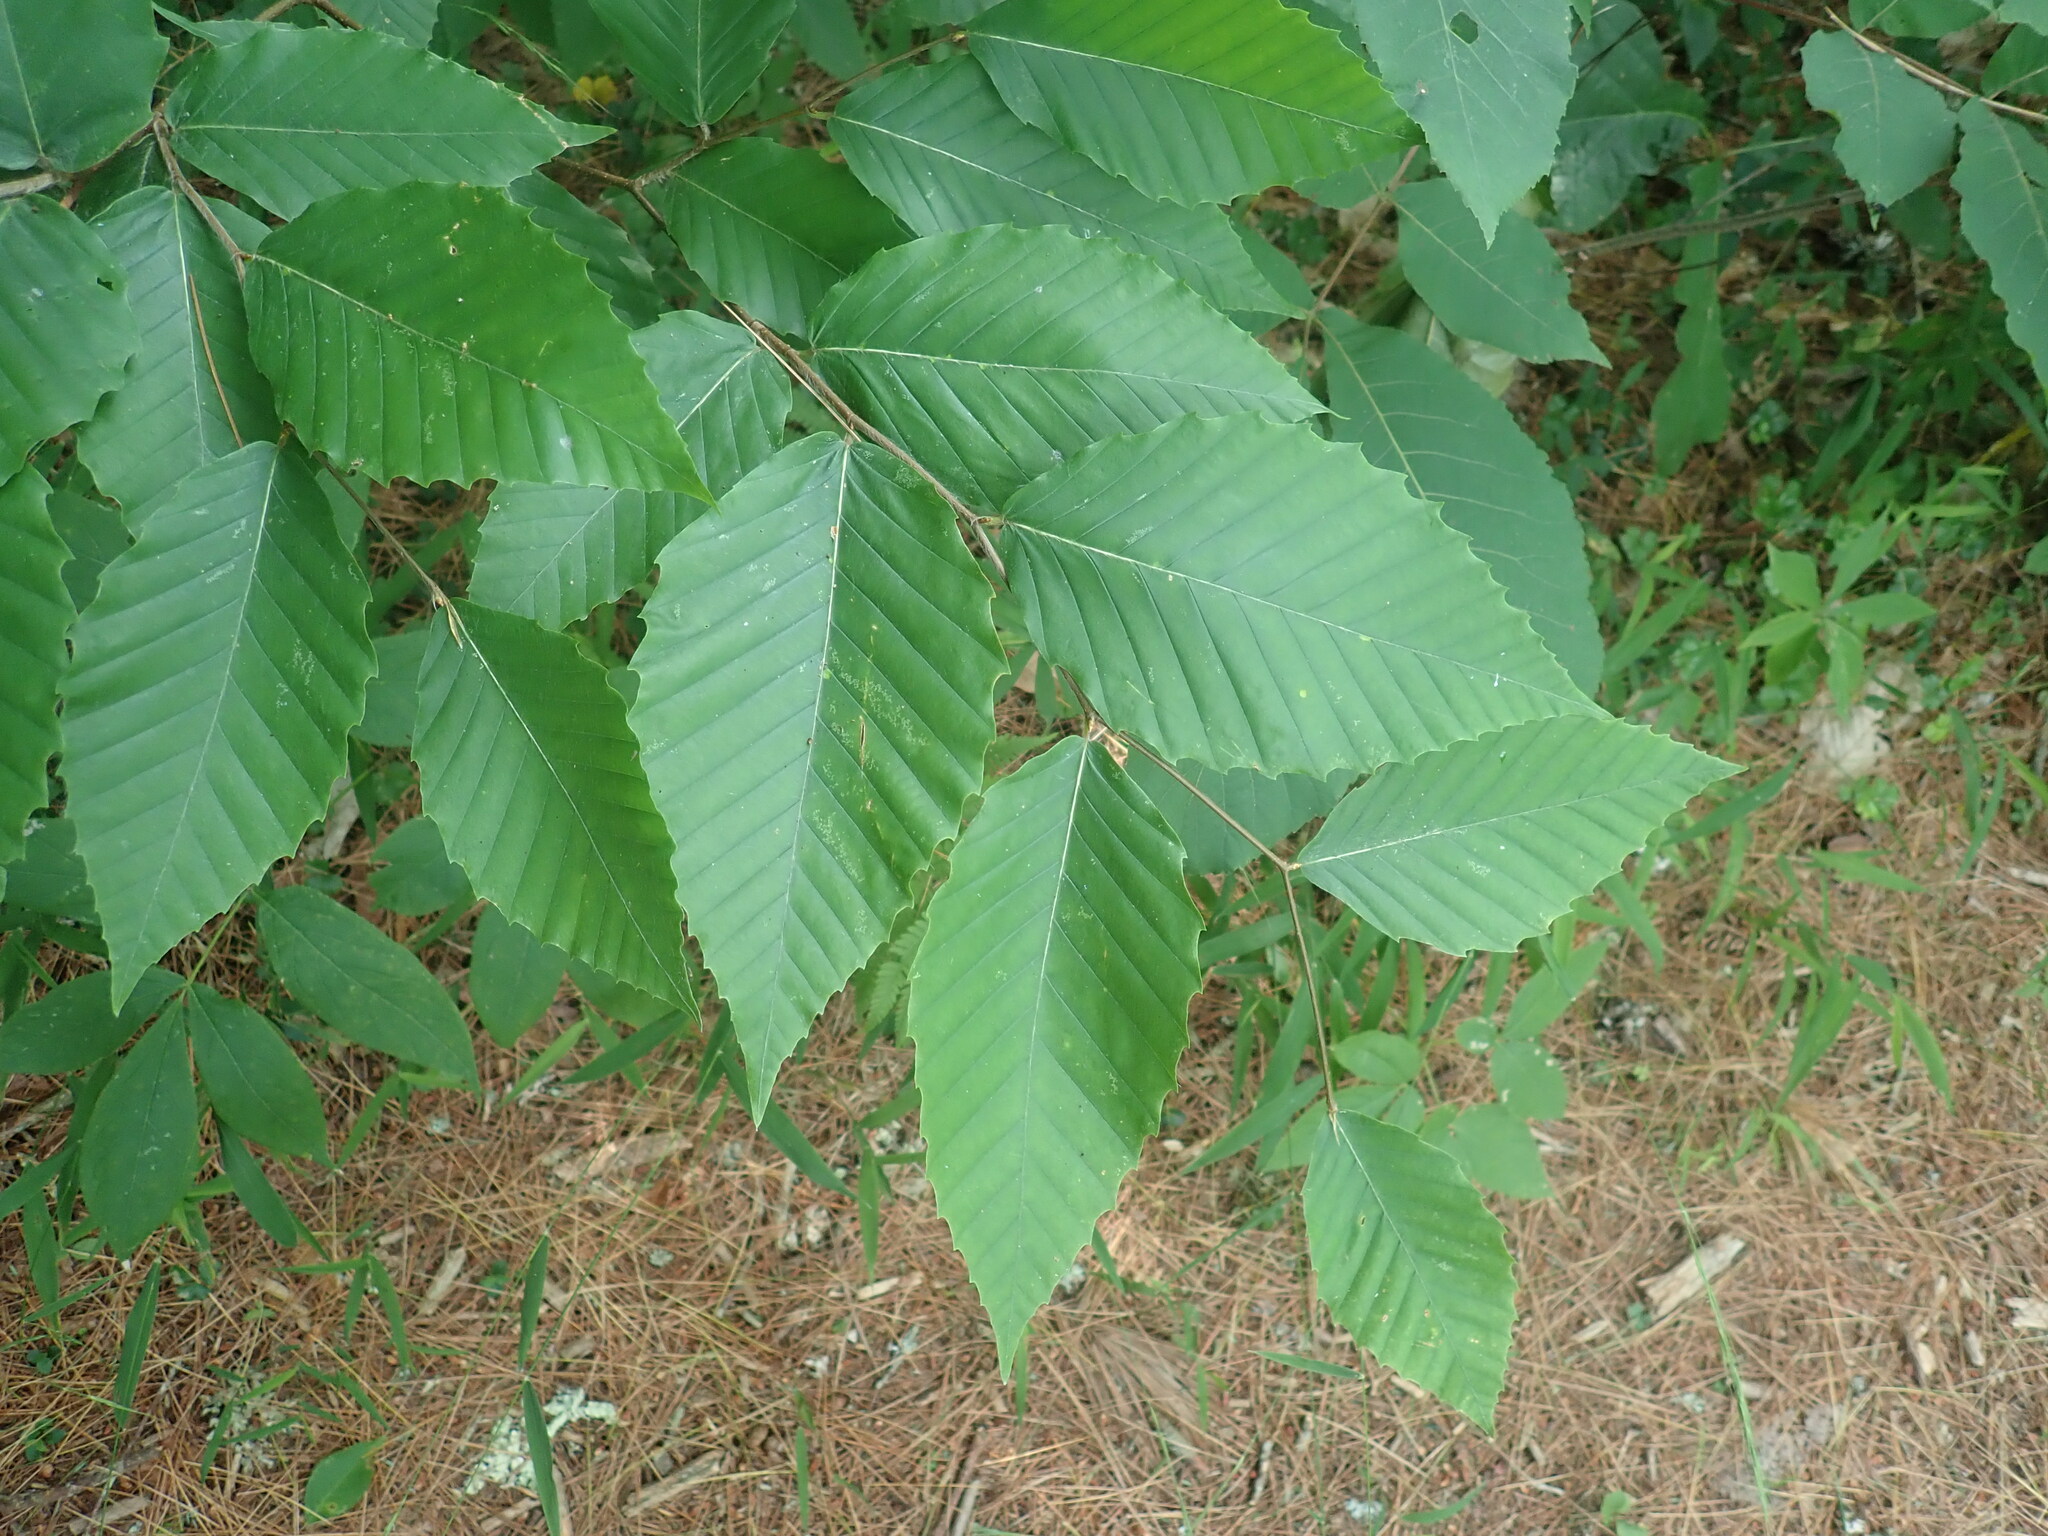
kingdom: Plantae
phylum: Tracheophyta
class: Magnoliopsida
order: Fagales
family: Fagaceae
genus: Fagus
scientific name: Fagus grandifolia
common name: American beech
